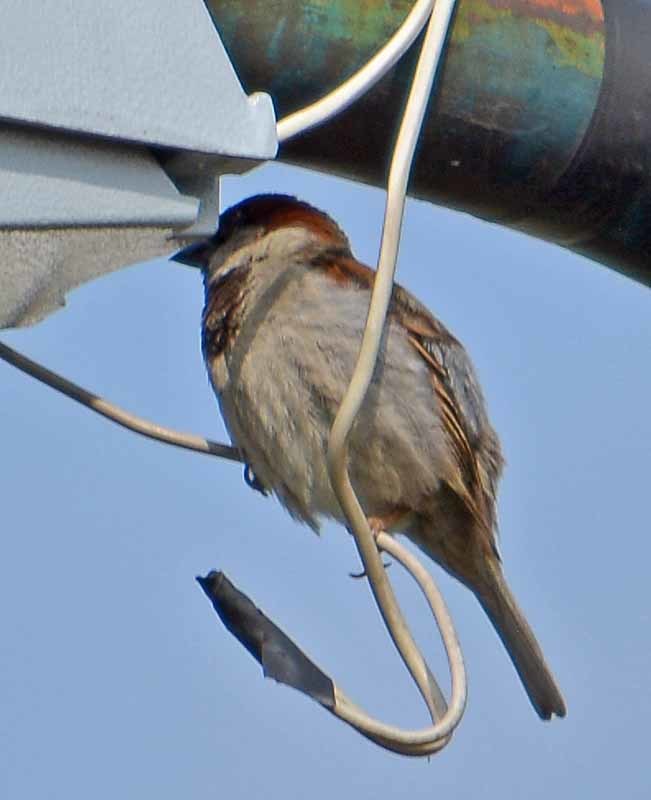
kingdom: Animalia
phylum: Chordata
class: Aves
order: Passeriformes
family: Passeridae
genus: Passer
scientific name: Passer domesticus
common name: House sparrow
